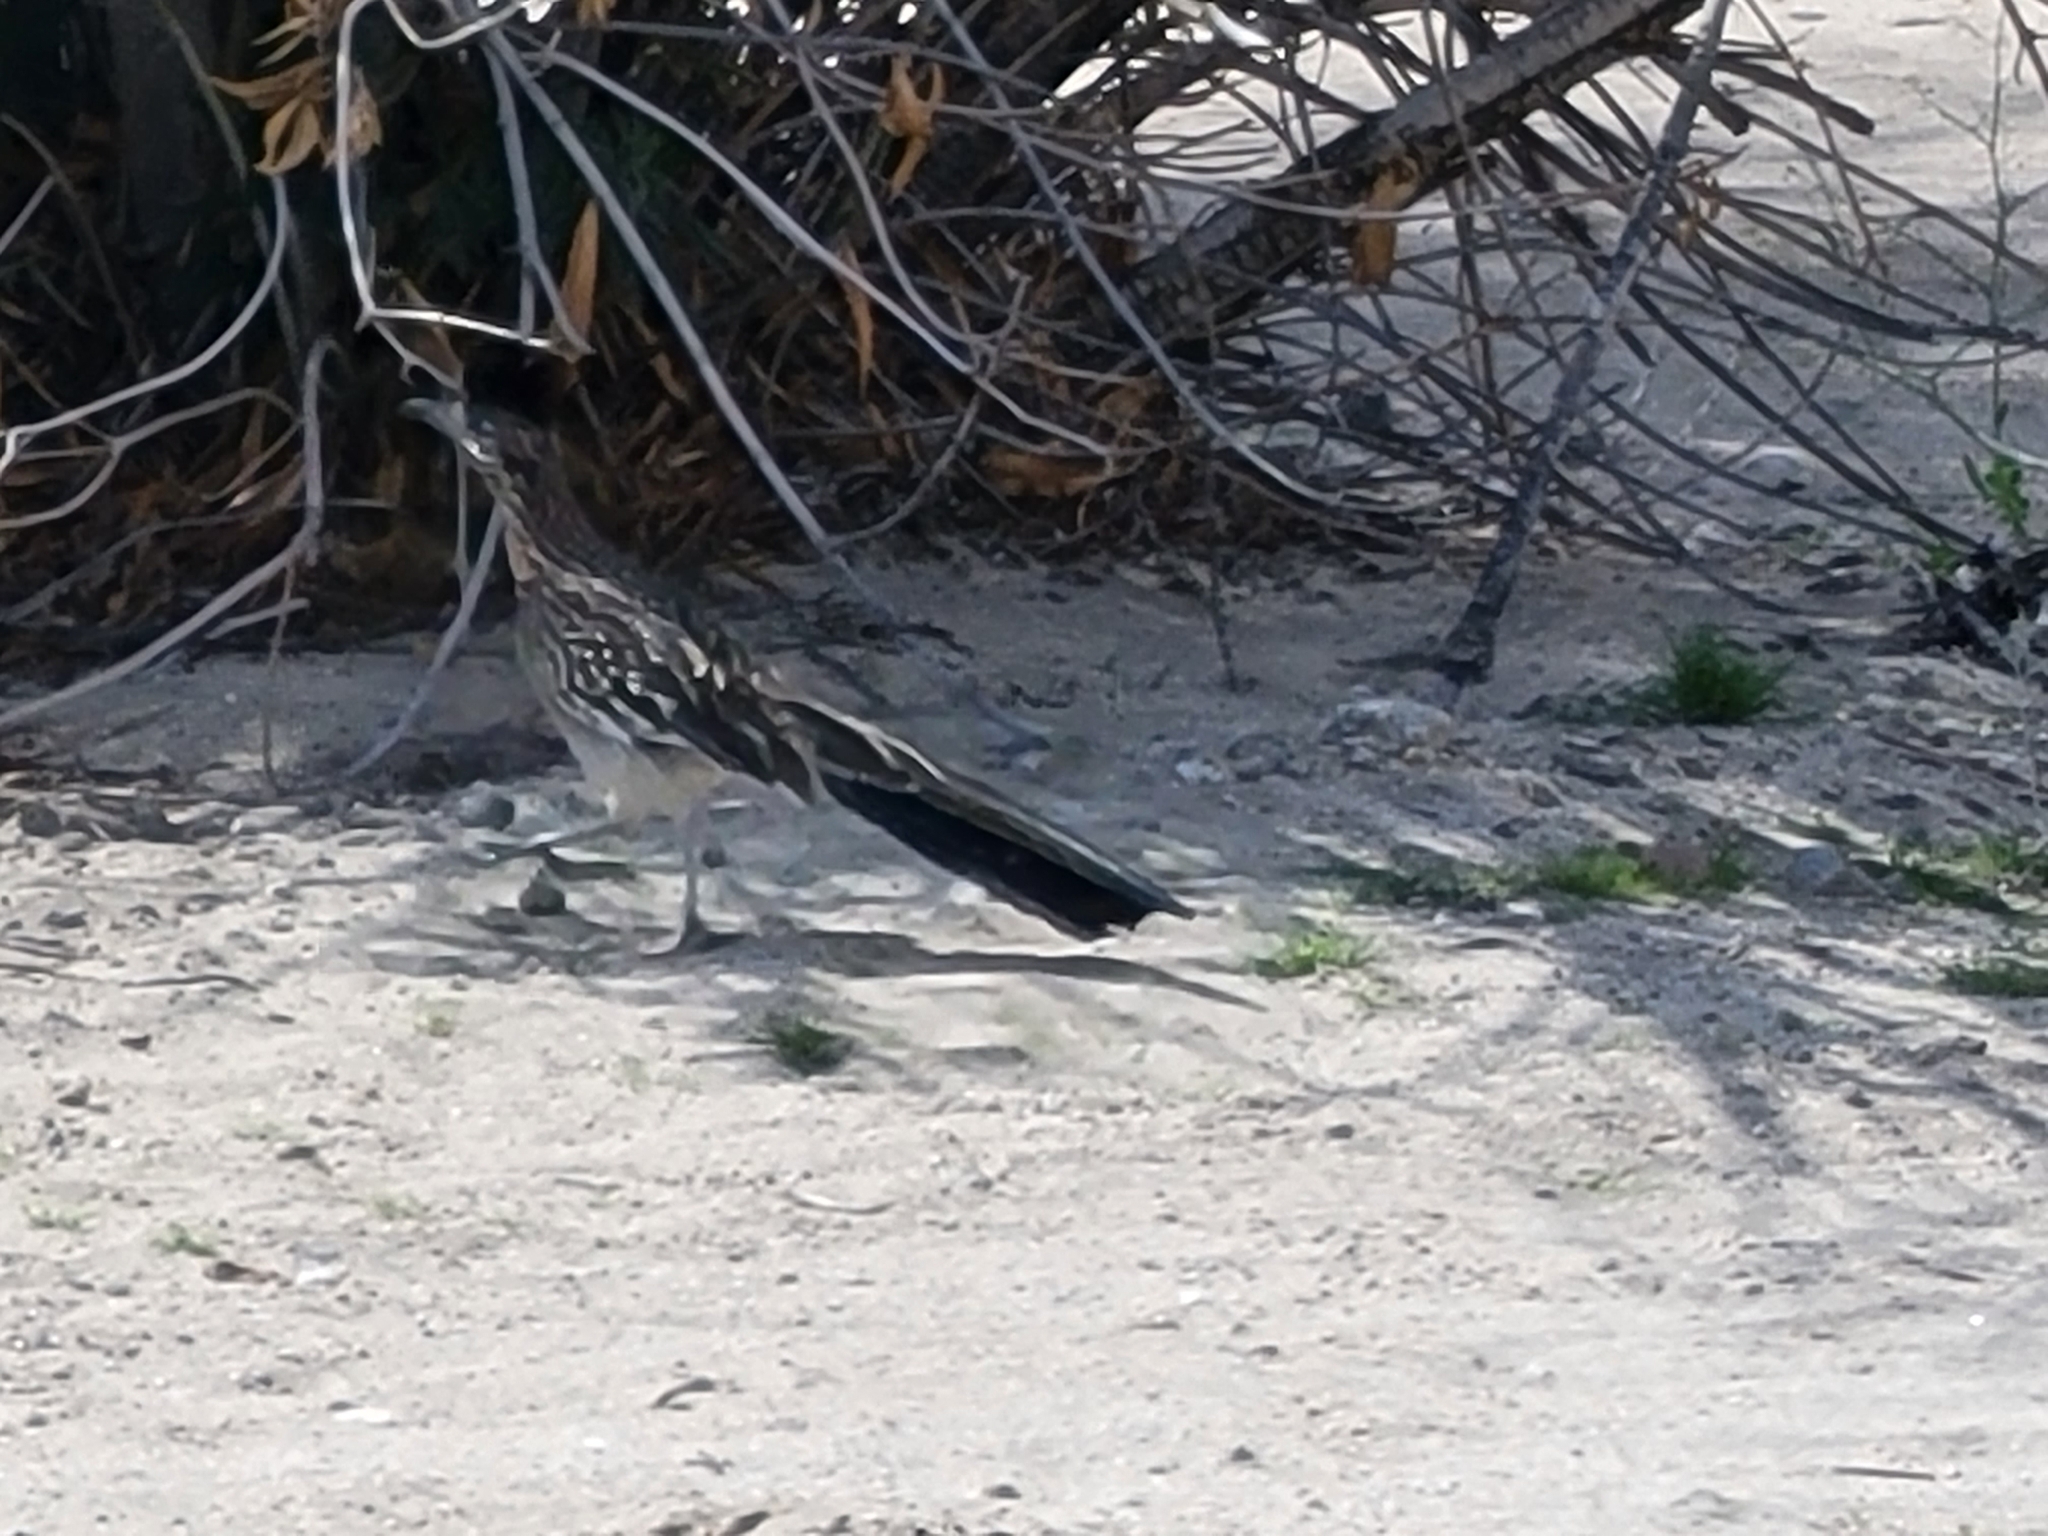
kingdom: Animalia
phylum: Chordata
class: Aves
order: Cuculiformes
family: Cuculidae
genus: Geococcyx
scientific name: Geococcyx californianus
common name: Greater roadrunner
